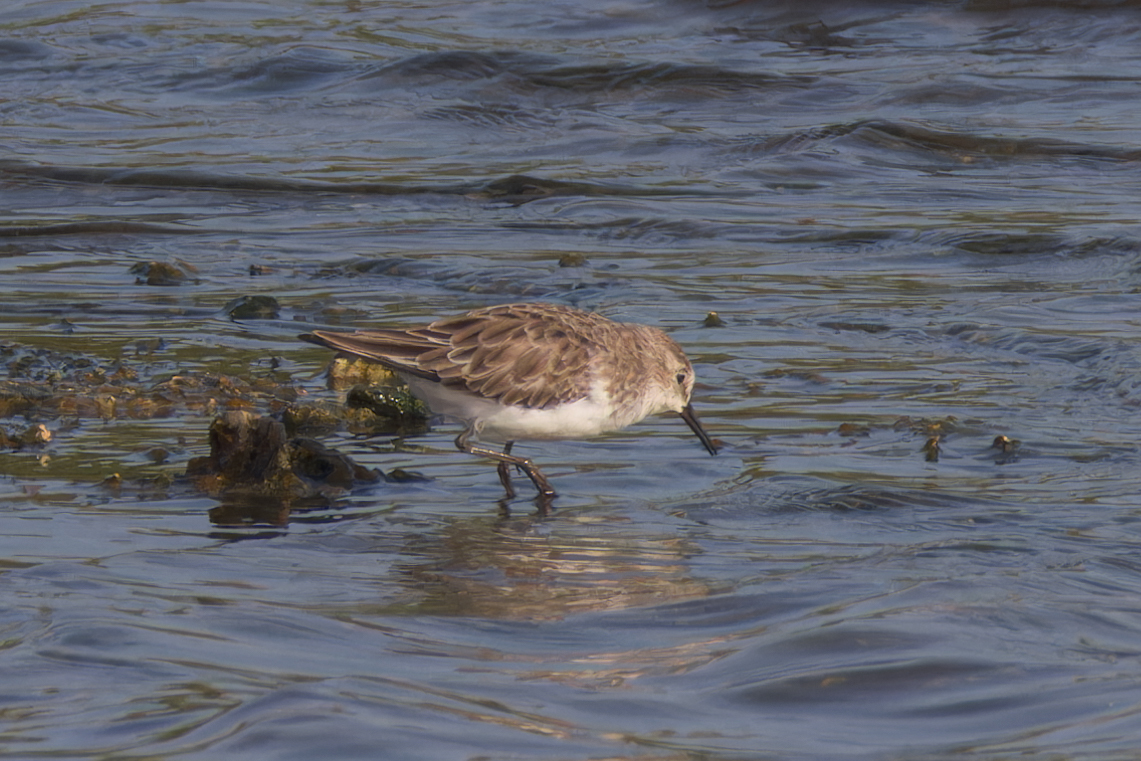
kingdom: Animalia
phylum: Chordata
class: Aves
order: Charadriiformes
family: Scolopacidae
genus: Calidris
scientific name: Calidris minuta
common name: Little stint
